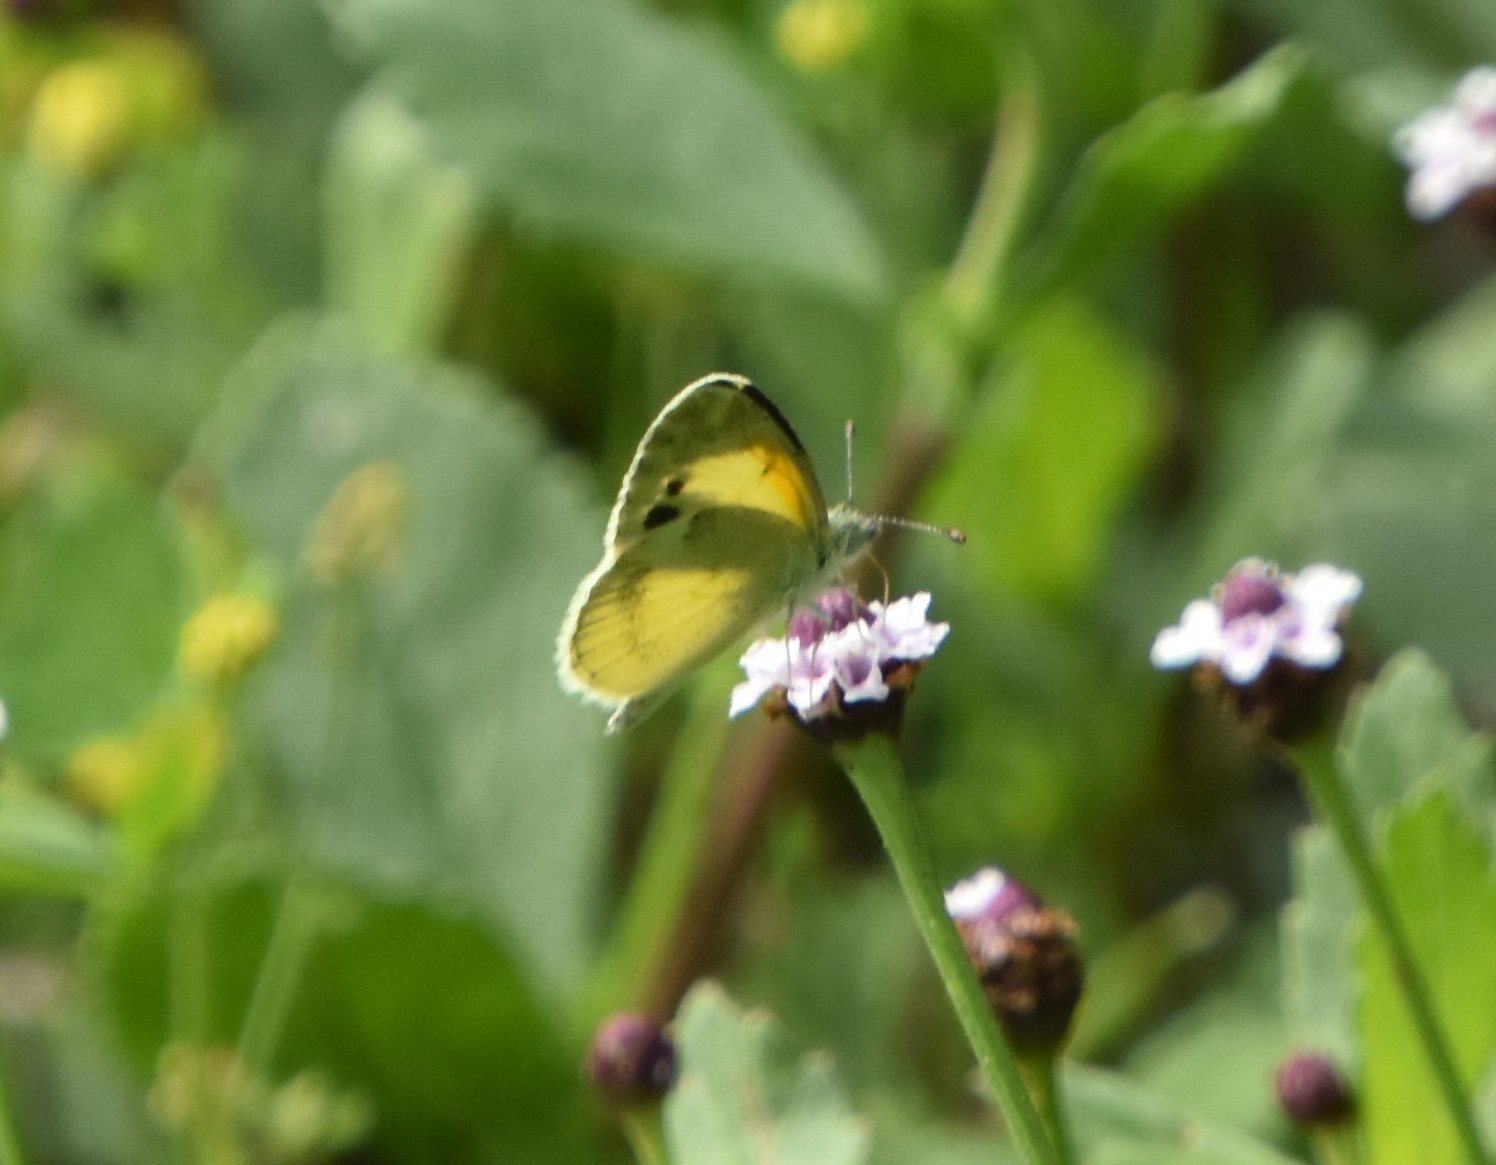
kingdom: Animalia
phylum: Arthropoda
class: Insecta
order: Lepidoptera
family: Pieridae
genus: Nathalis
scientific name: Nathalis iole
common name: Dainty sulphur
